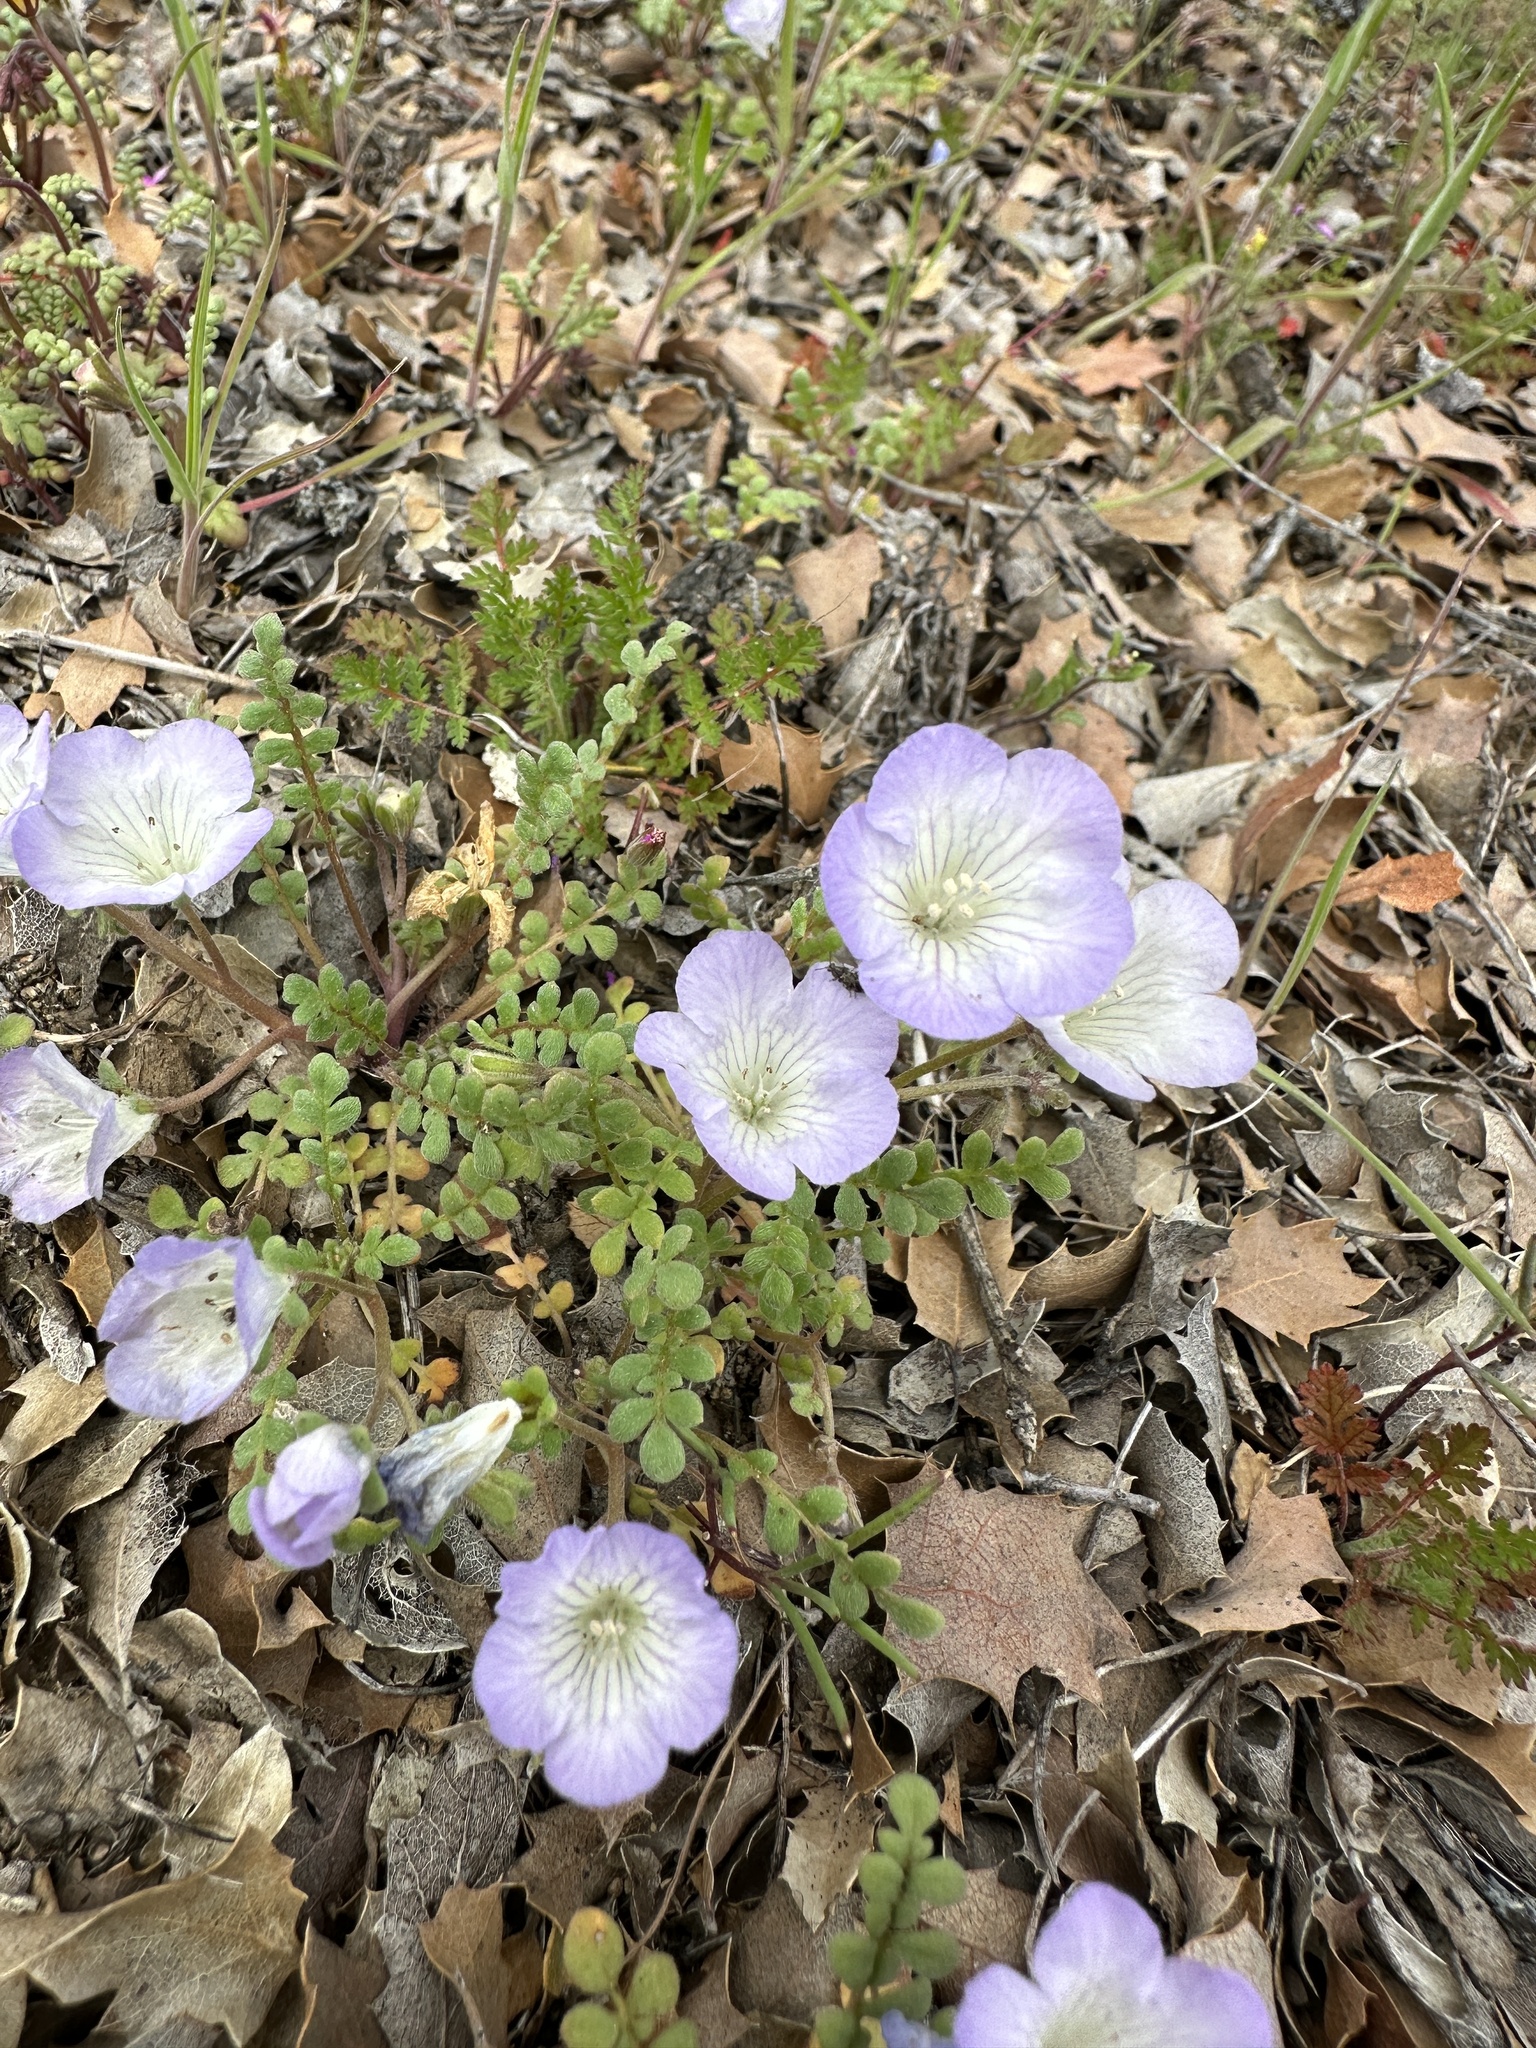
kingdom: Plantae
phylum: Tracheophyta
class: Magnoliopsida
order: Boraginales
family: Hydrophyllaceae
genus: Phacelia
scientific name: Phacelia douglasii
